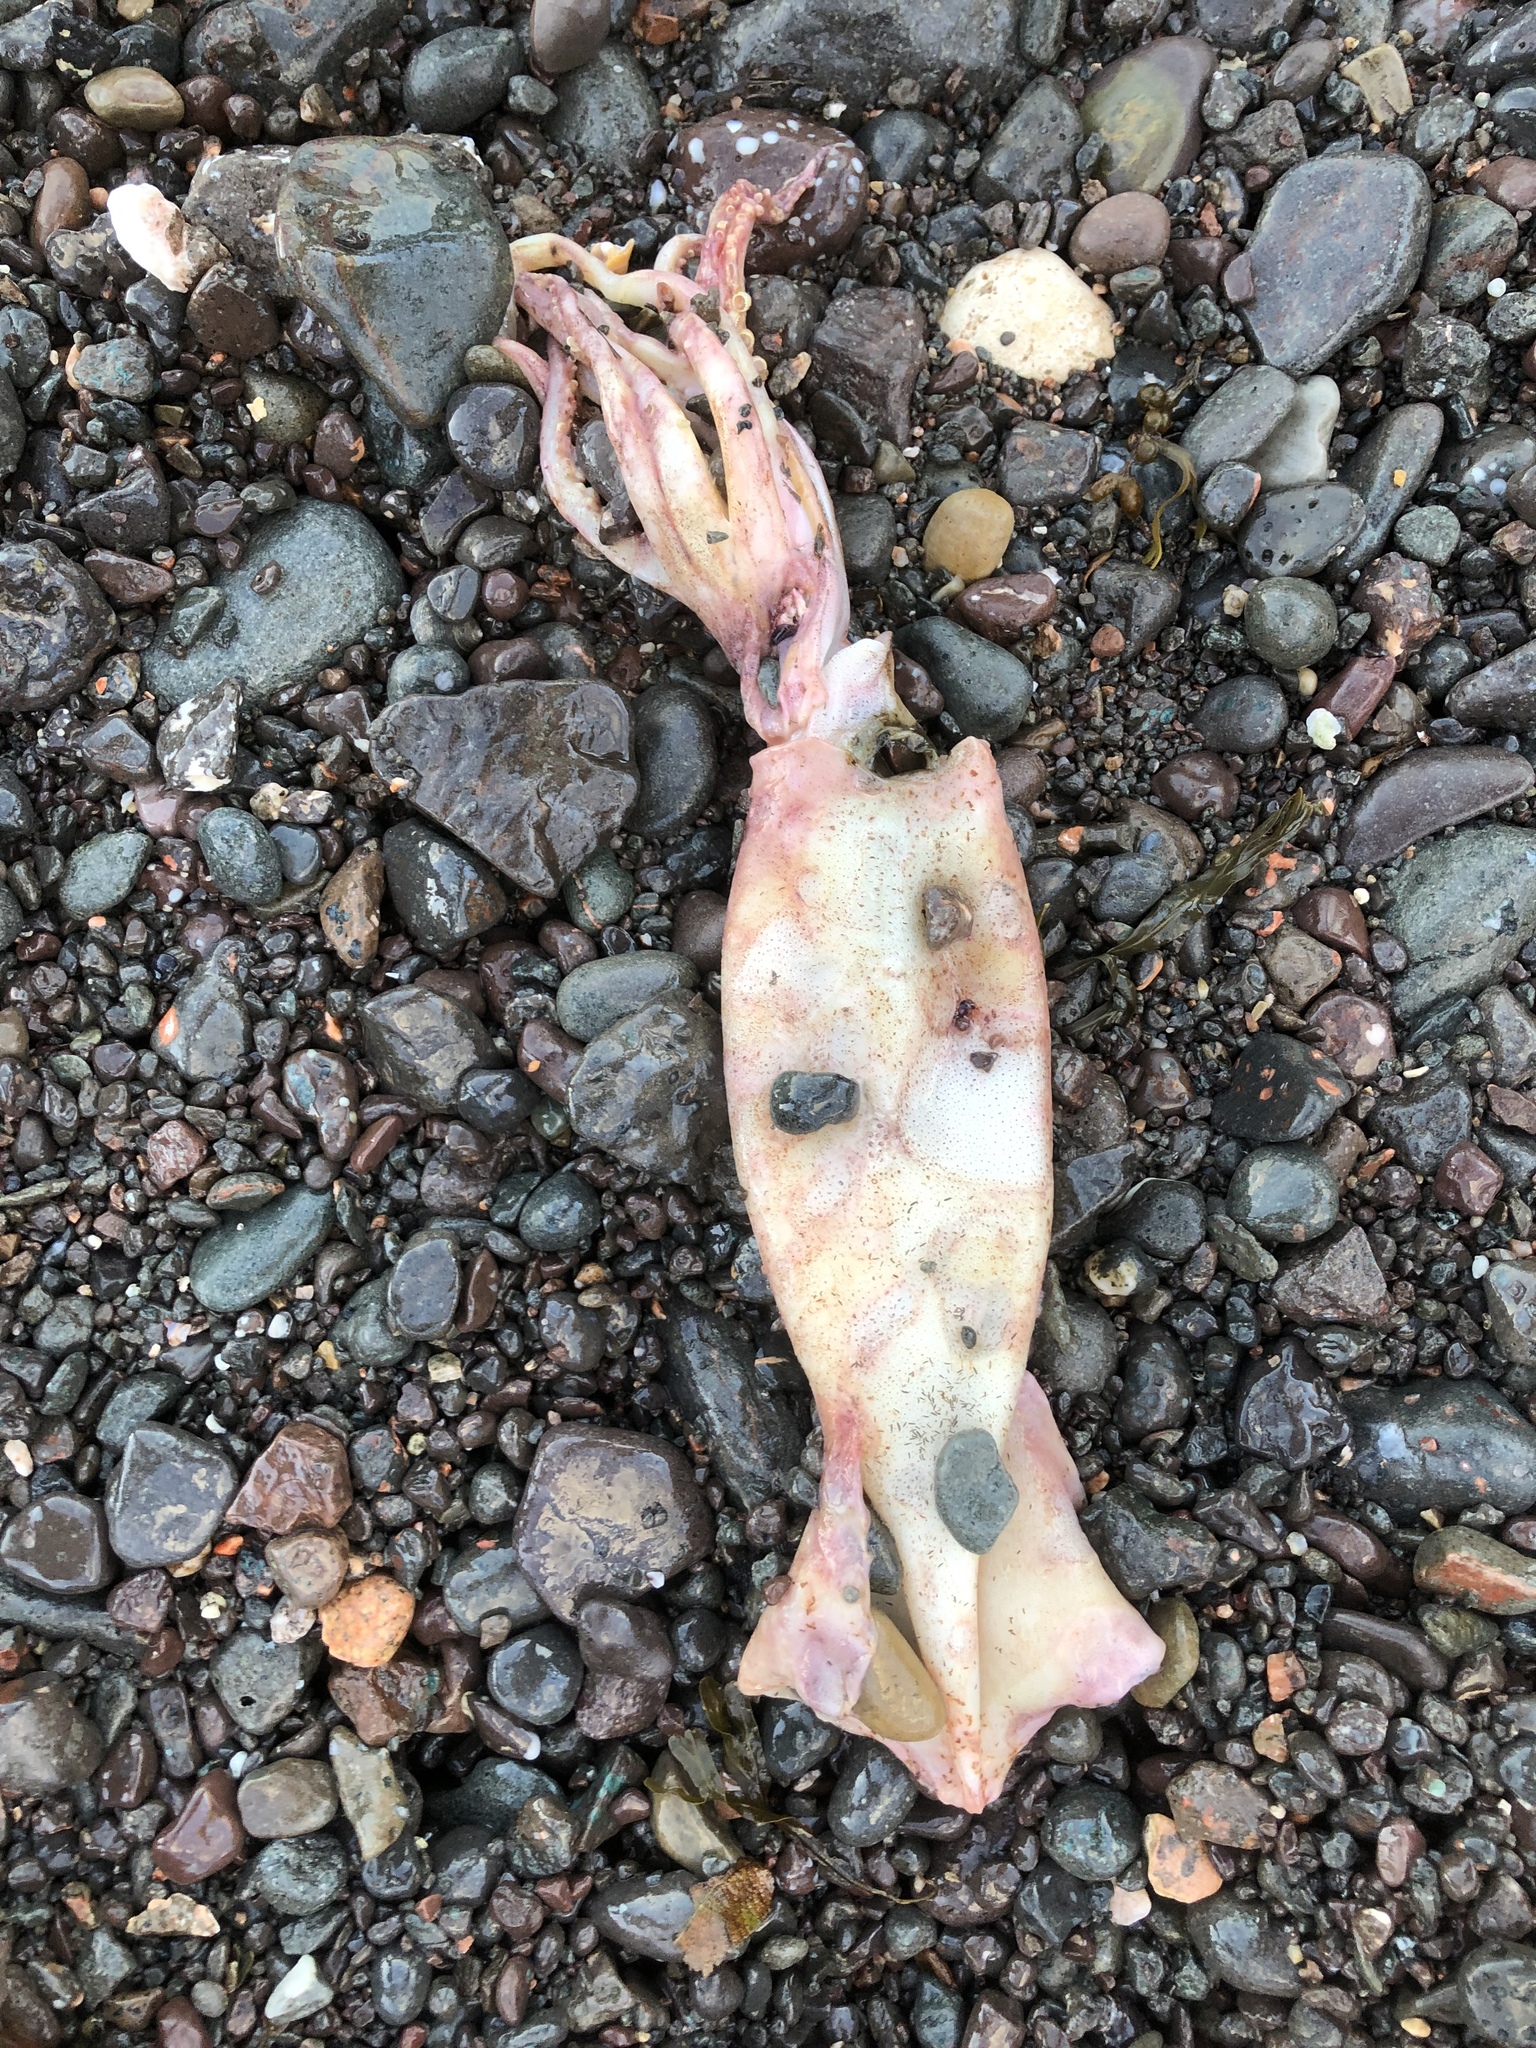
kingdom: Animalia
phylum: Mollusca
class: Cephalopoda
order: Oegopsida
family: Ommastrephidae
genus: Illex
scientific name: Illex illecebrosus
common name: Boreal squid
